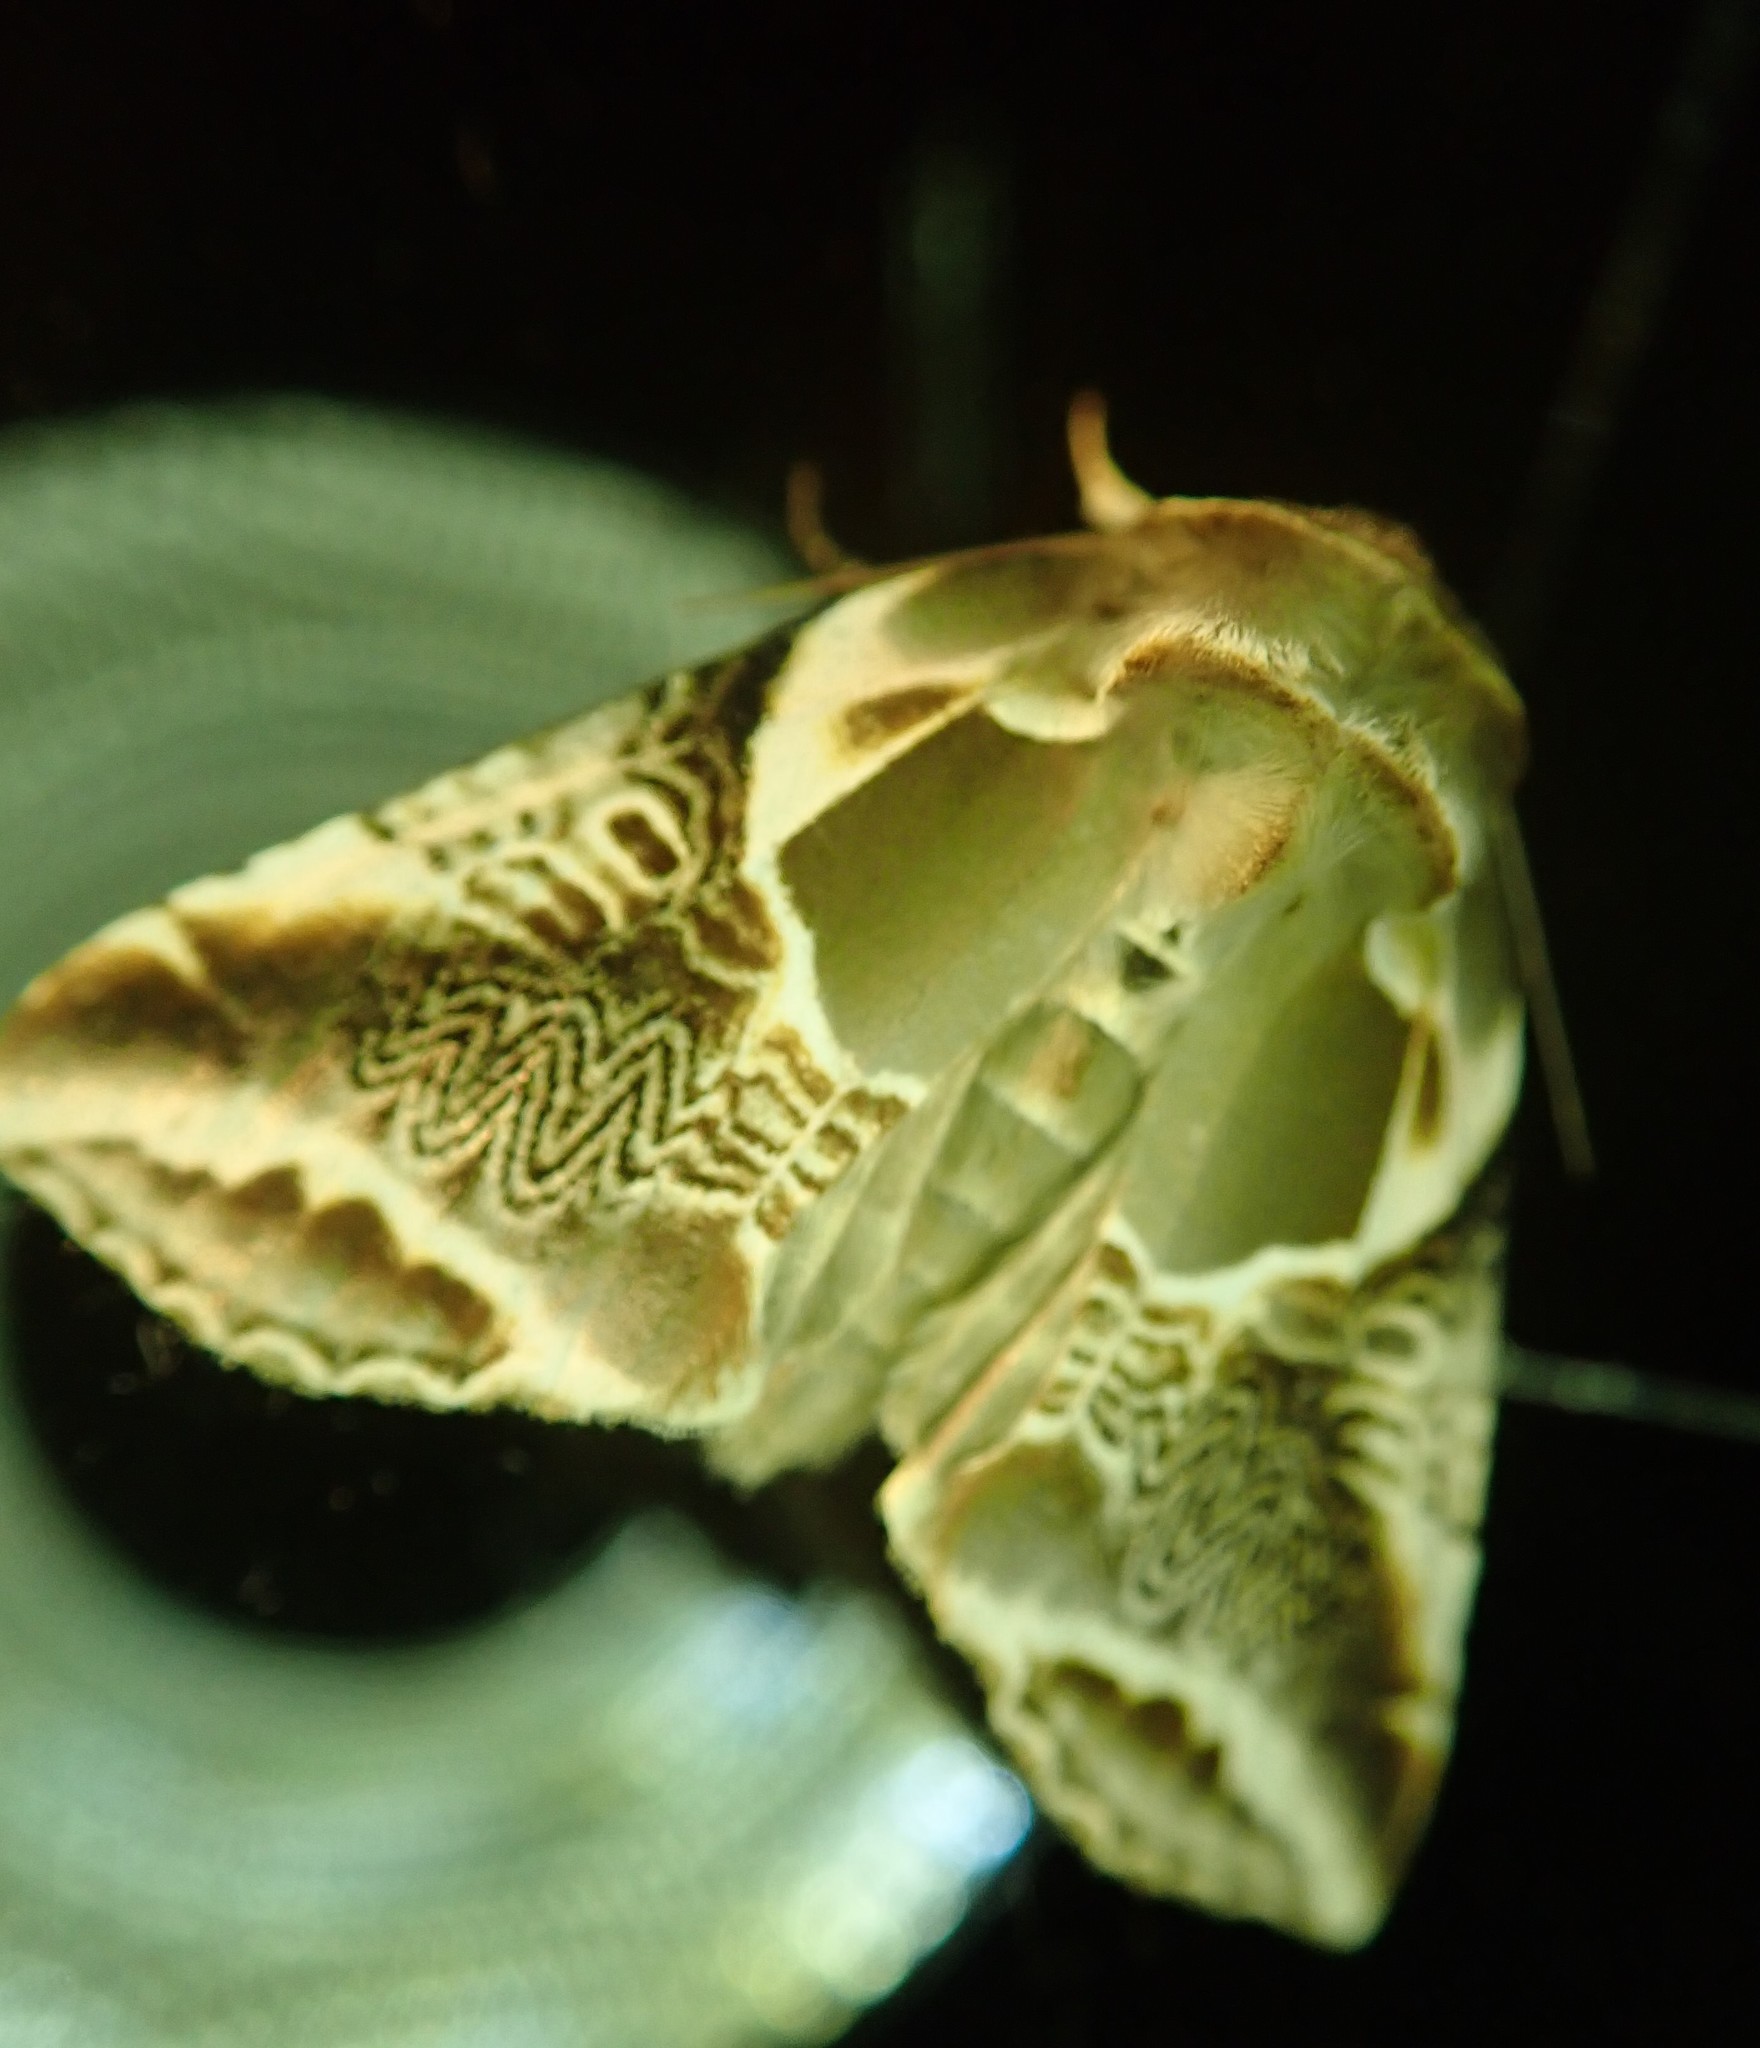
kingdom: Animalia
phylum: Arthropoda
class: Insecta
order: Lepidoptera
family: Drepanidae
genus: Habrosyne
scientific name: Habrosyne scripta
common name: Lettered habrosyne moth
